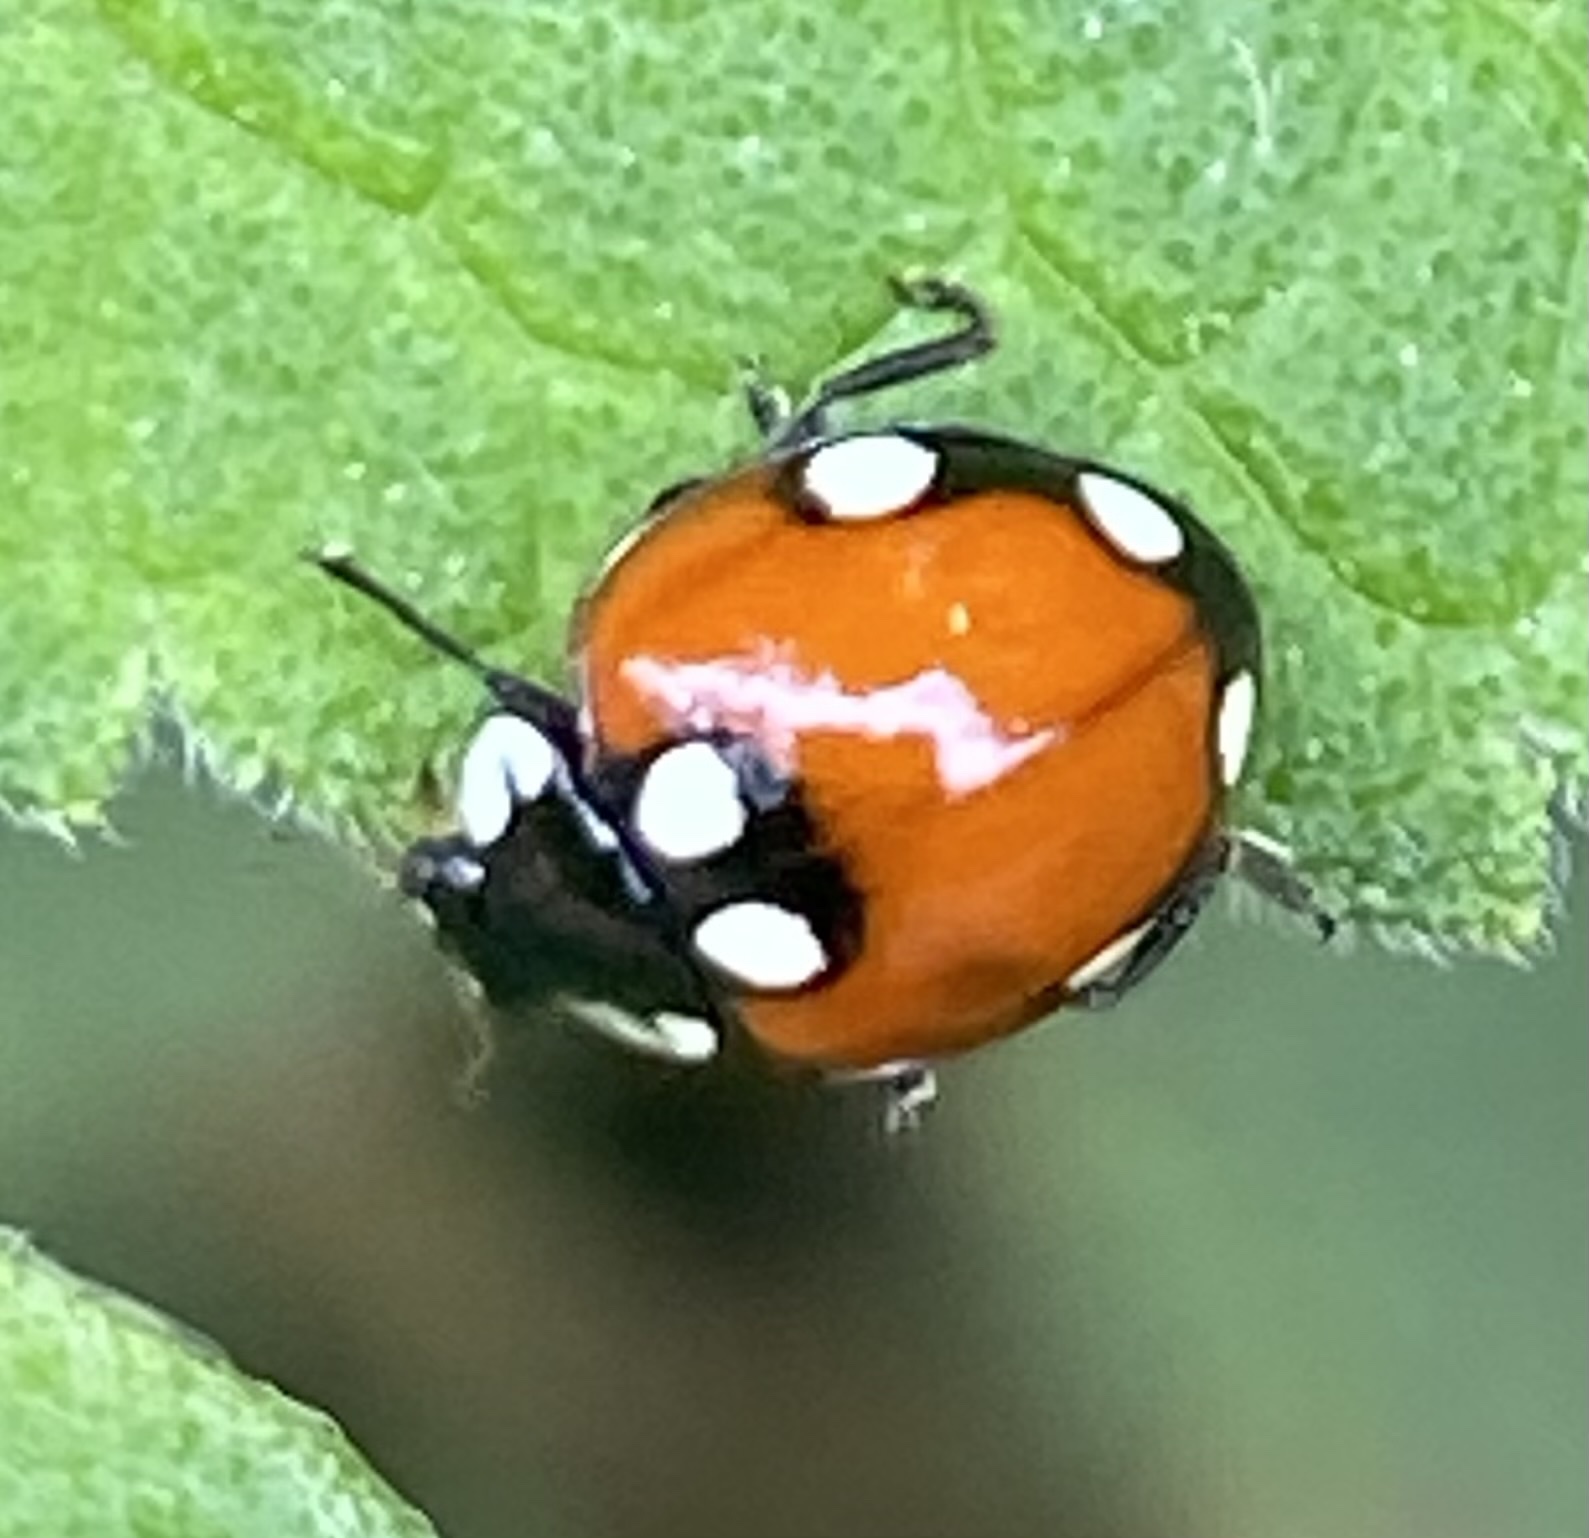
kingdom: Animalia
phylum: Arthropoda
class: Insecta
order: Coleoptera
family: Coccinellidae
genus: Cycloneda
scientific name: Cycloneda
